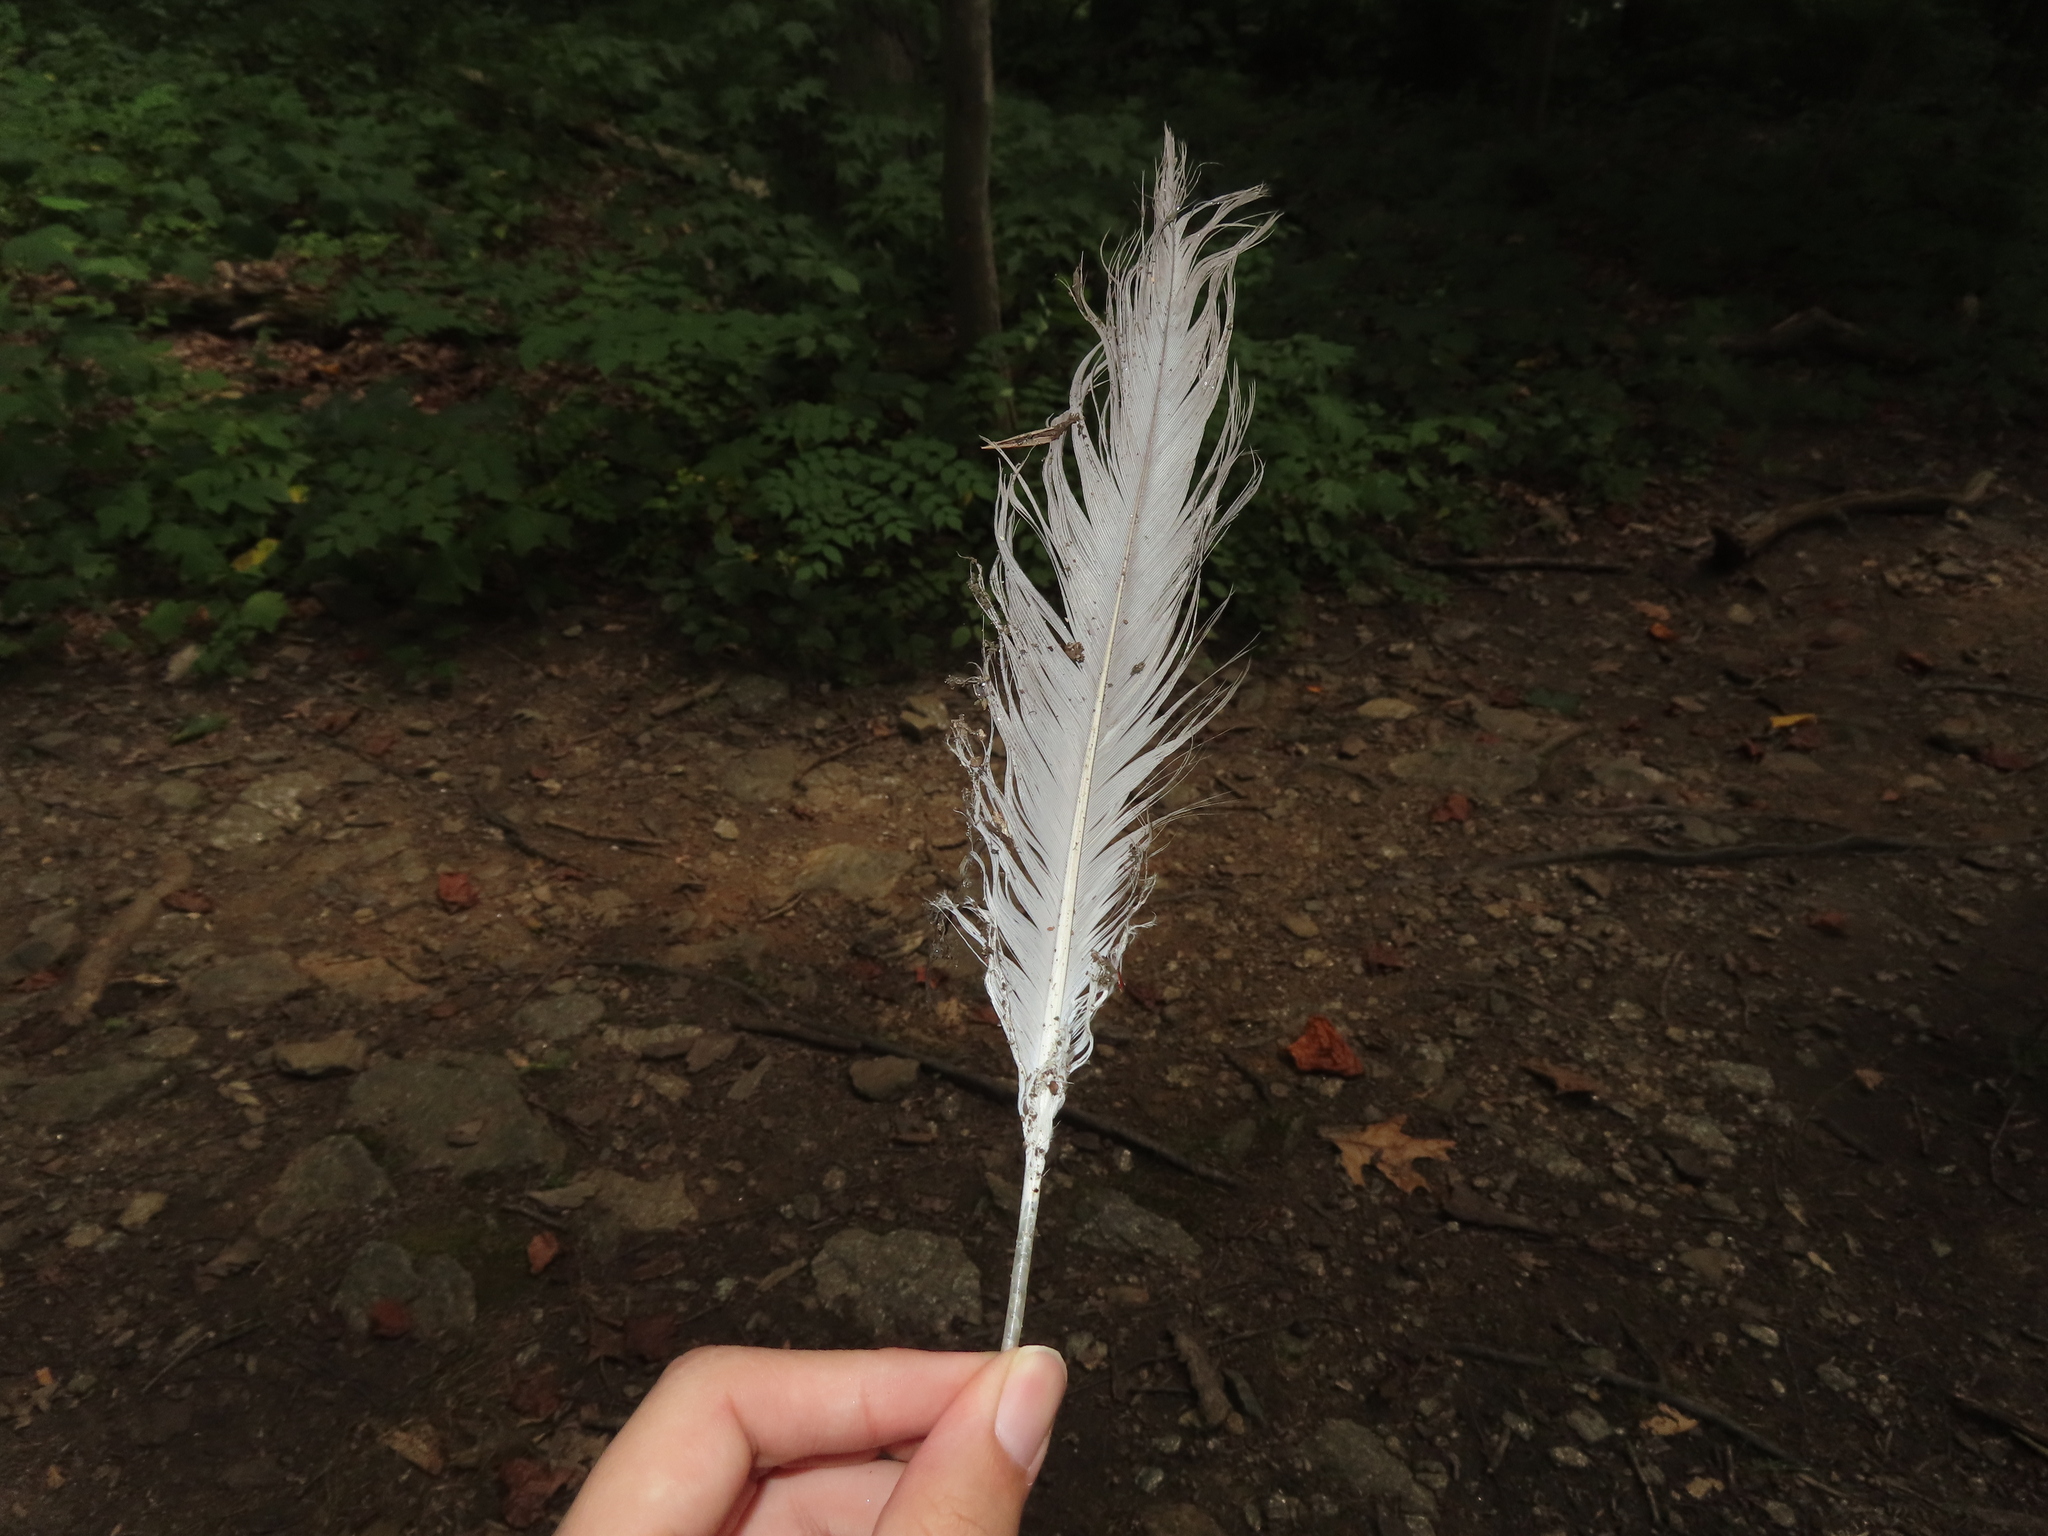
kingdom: Animalia
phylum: Chordata
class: Aves
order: Pelecaniformes
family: Ardeidae
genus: Ardea
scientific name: Ardea herodias
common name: Great blue heron
